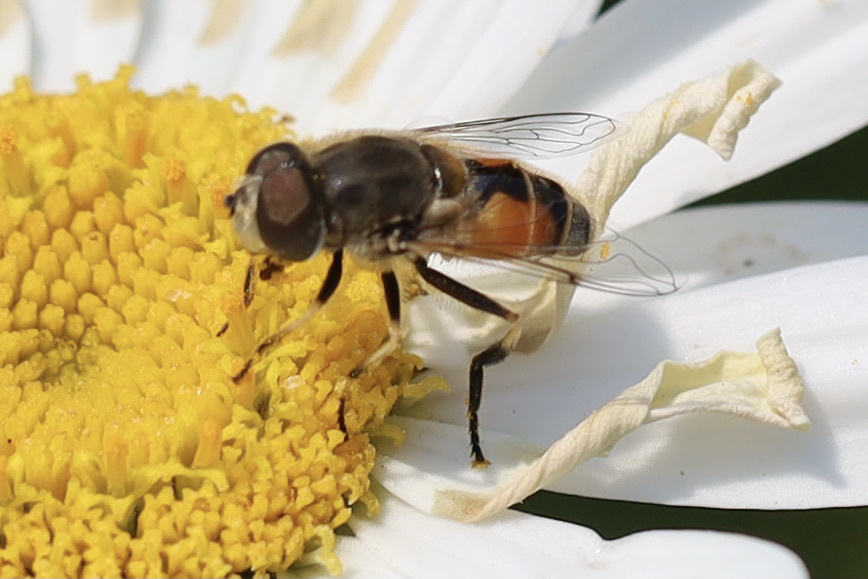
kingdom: Animalia
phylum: Arthropoda
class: Insecta
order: Diptera
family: Syrphidae
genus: Eristalis
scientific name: Eristalis arbustorum
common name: Hover fly
